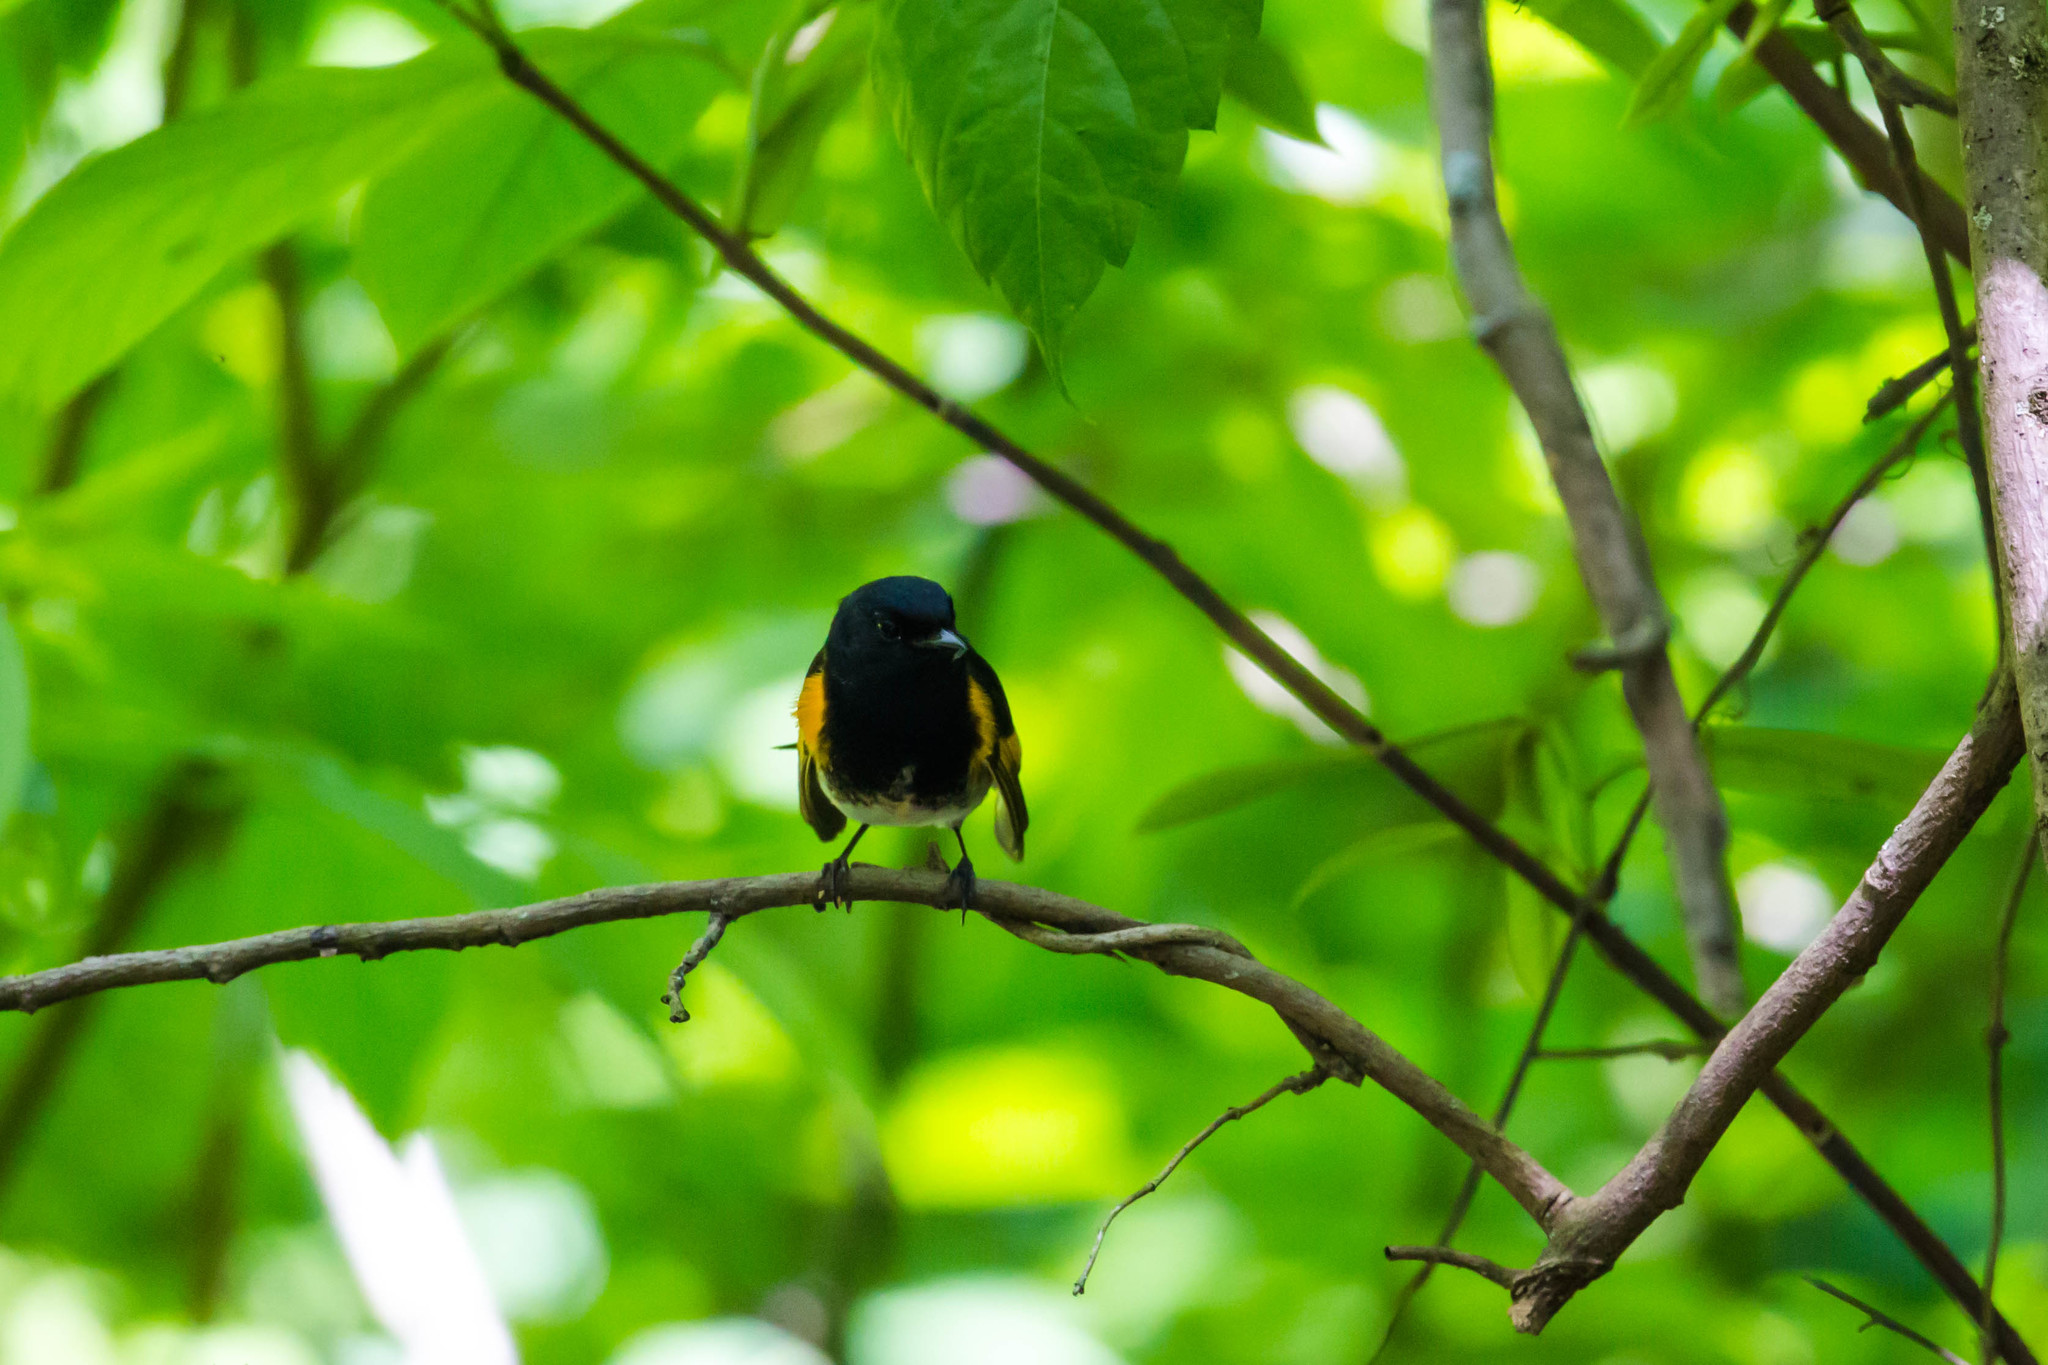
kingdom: Animalia
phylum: Chordata
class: Aves
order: Passeriformes
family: Parulidae
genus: Setophaga
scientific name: Setophaga ruticilla
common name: American redstart
